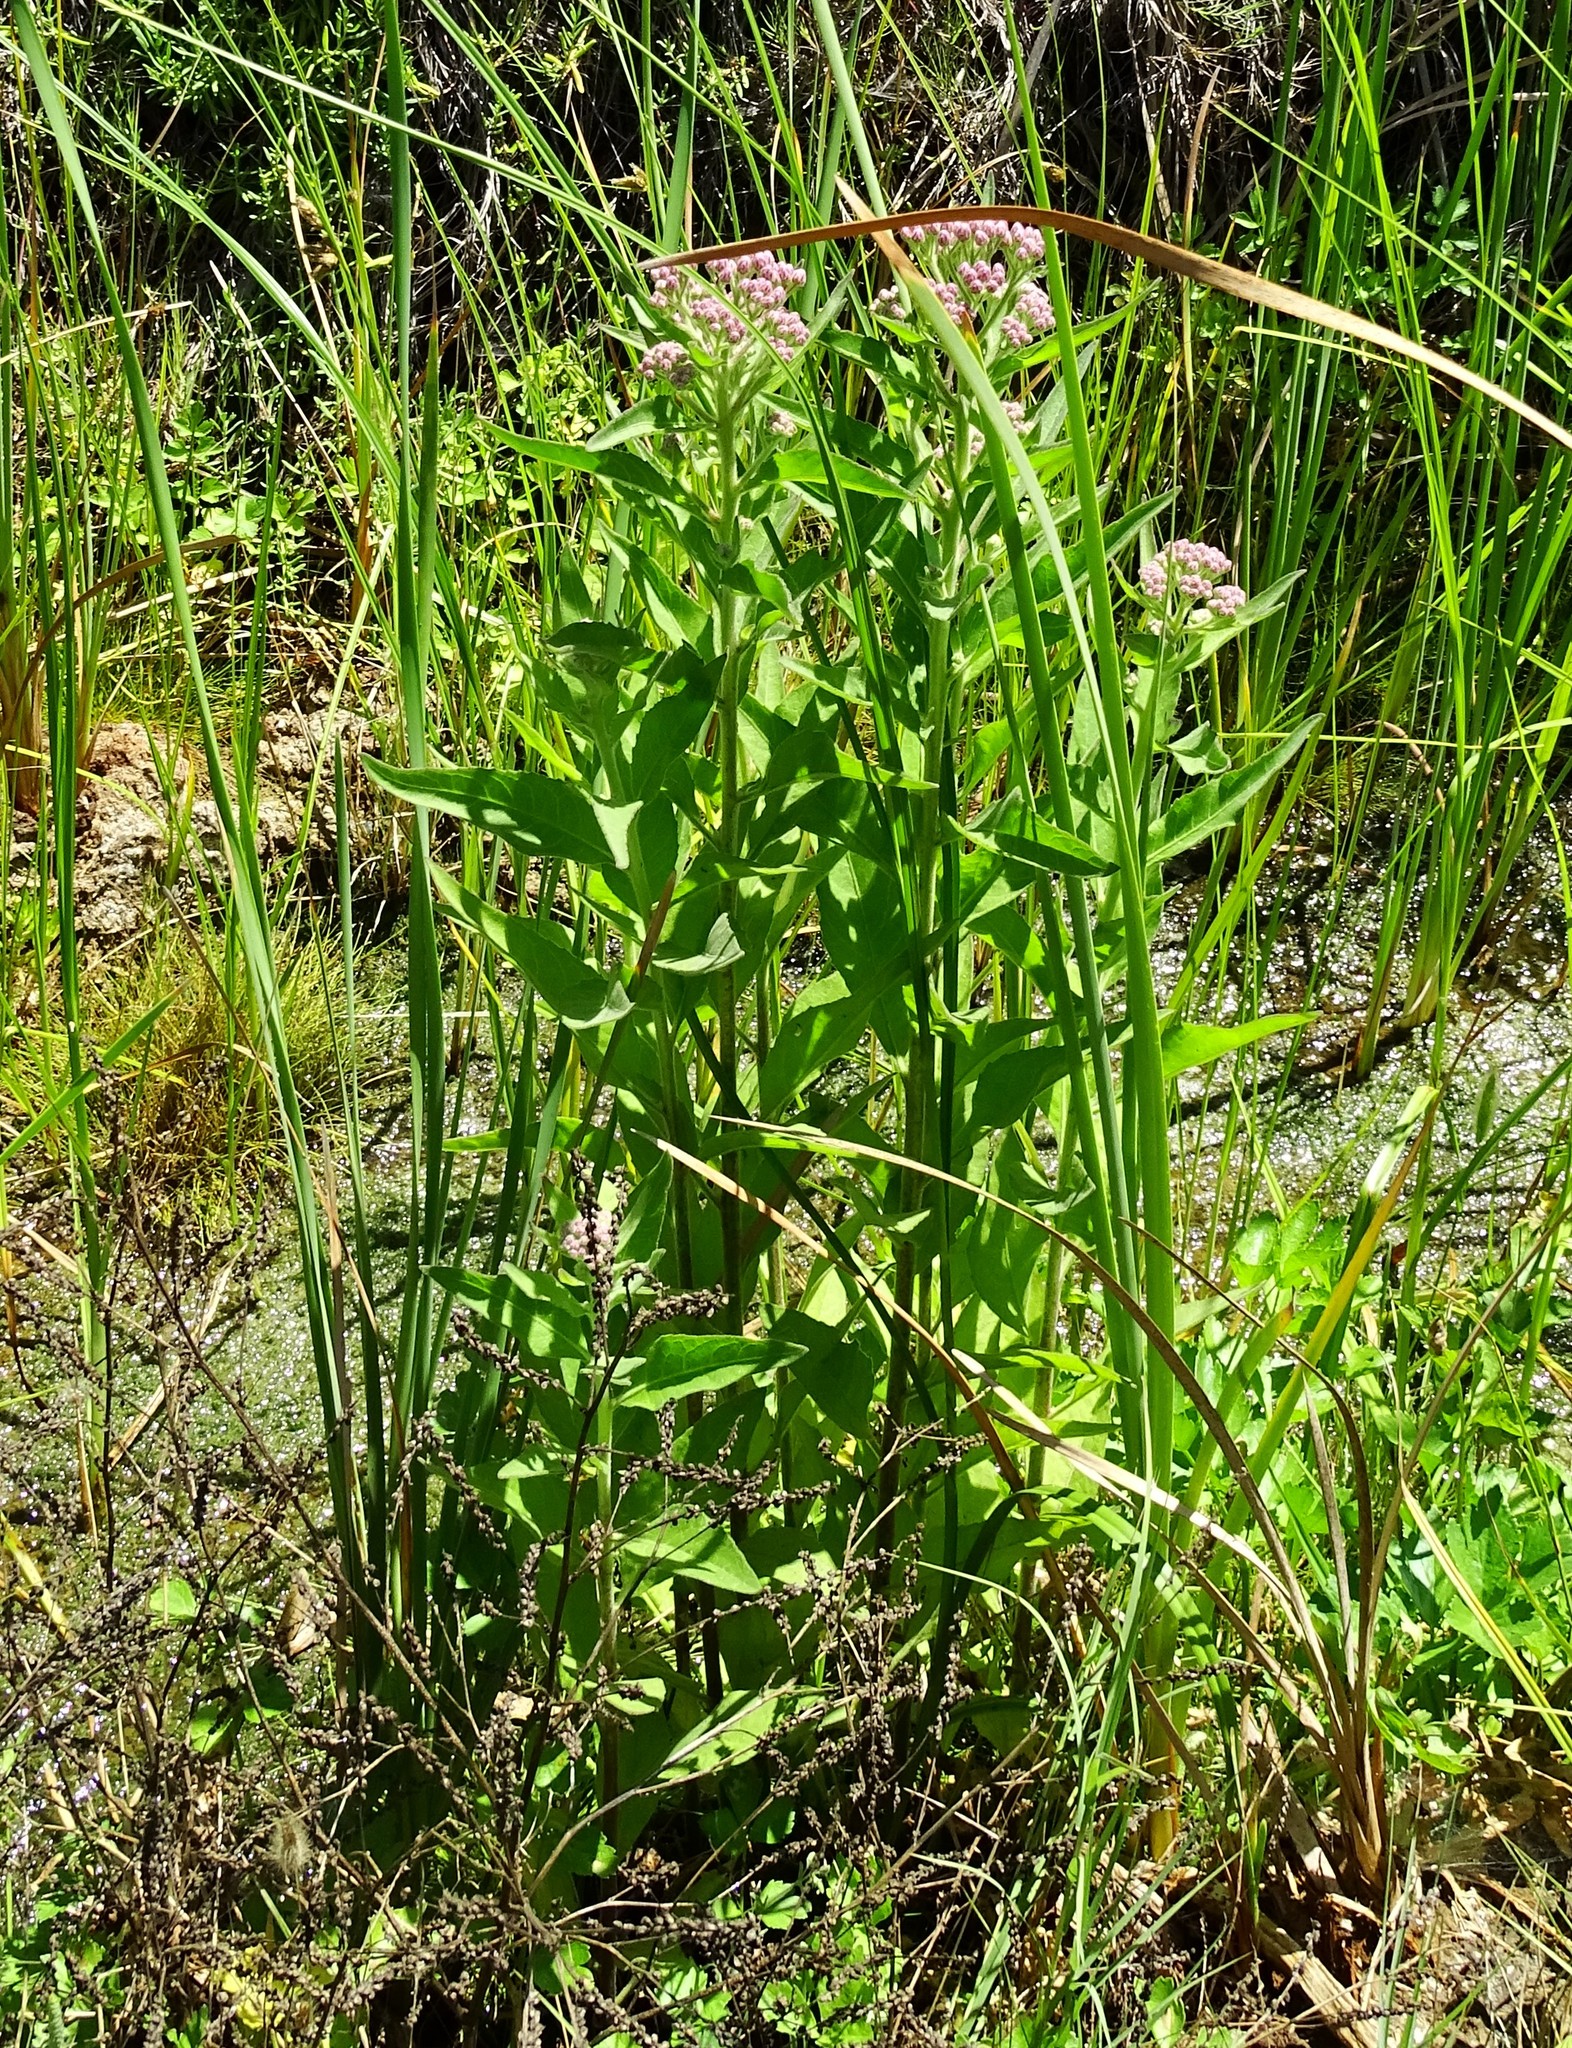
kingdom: Plantae
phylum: Tracheophyta
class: Magnoliopsida
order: Asterales
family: Asteraceae
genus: Pluchea
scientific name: Pluchea odorata
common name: Saltmarsh fleabane
